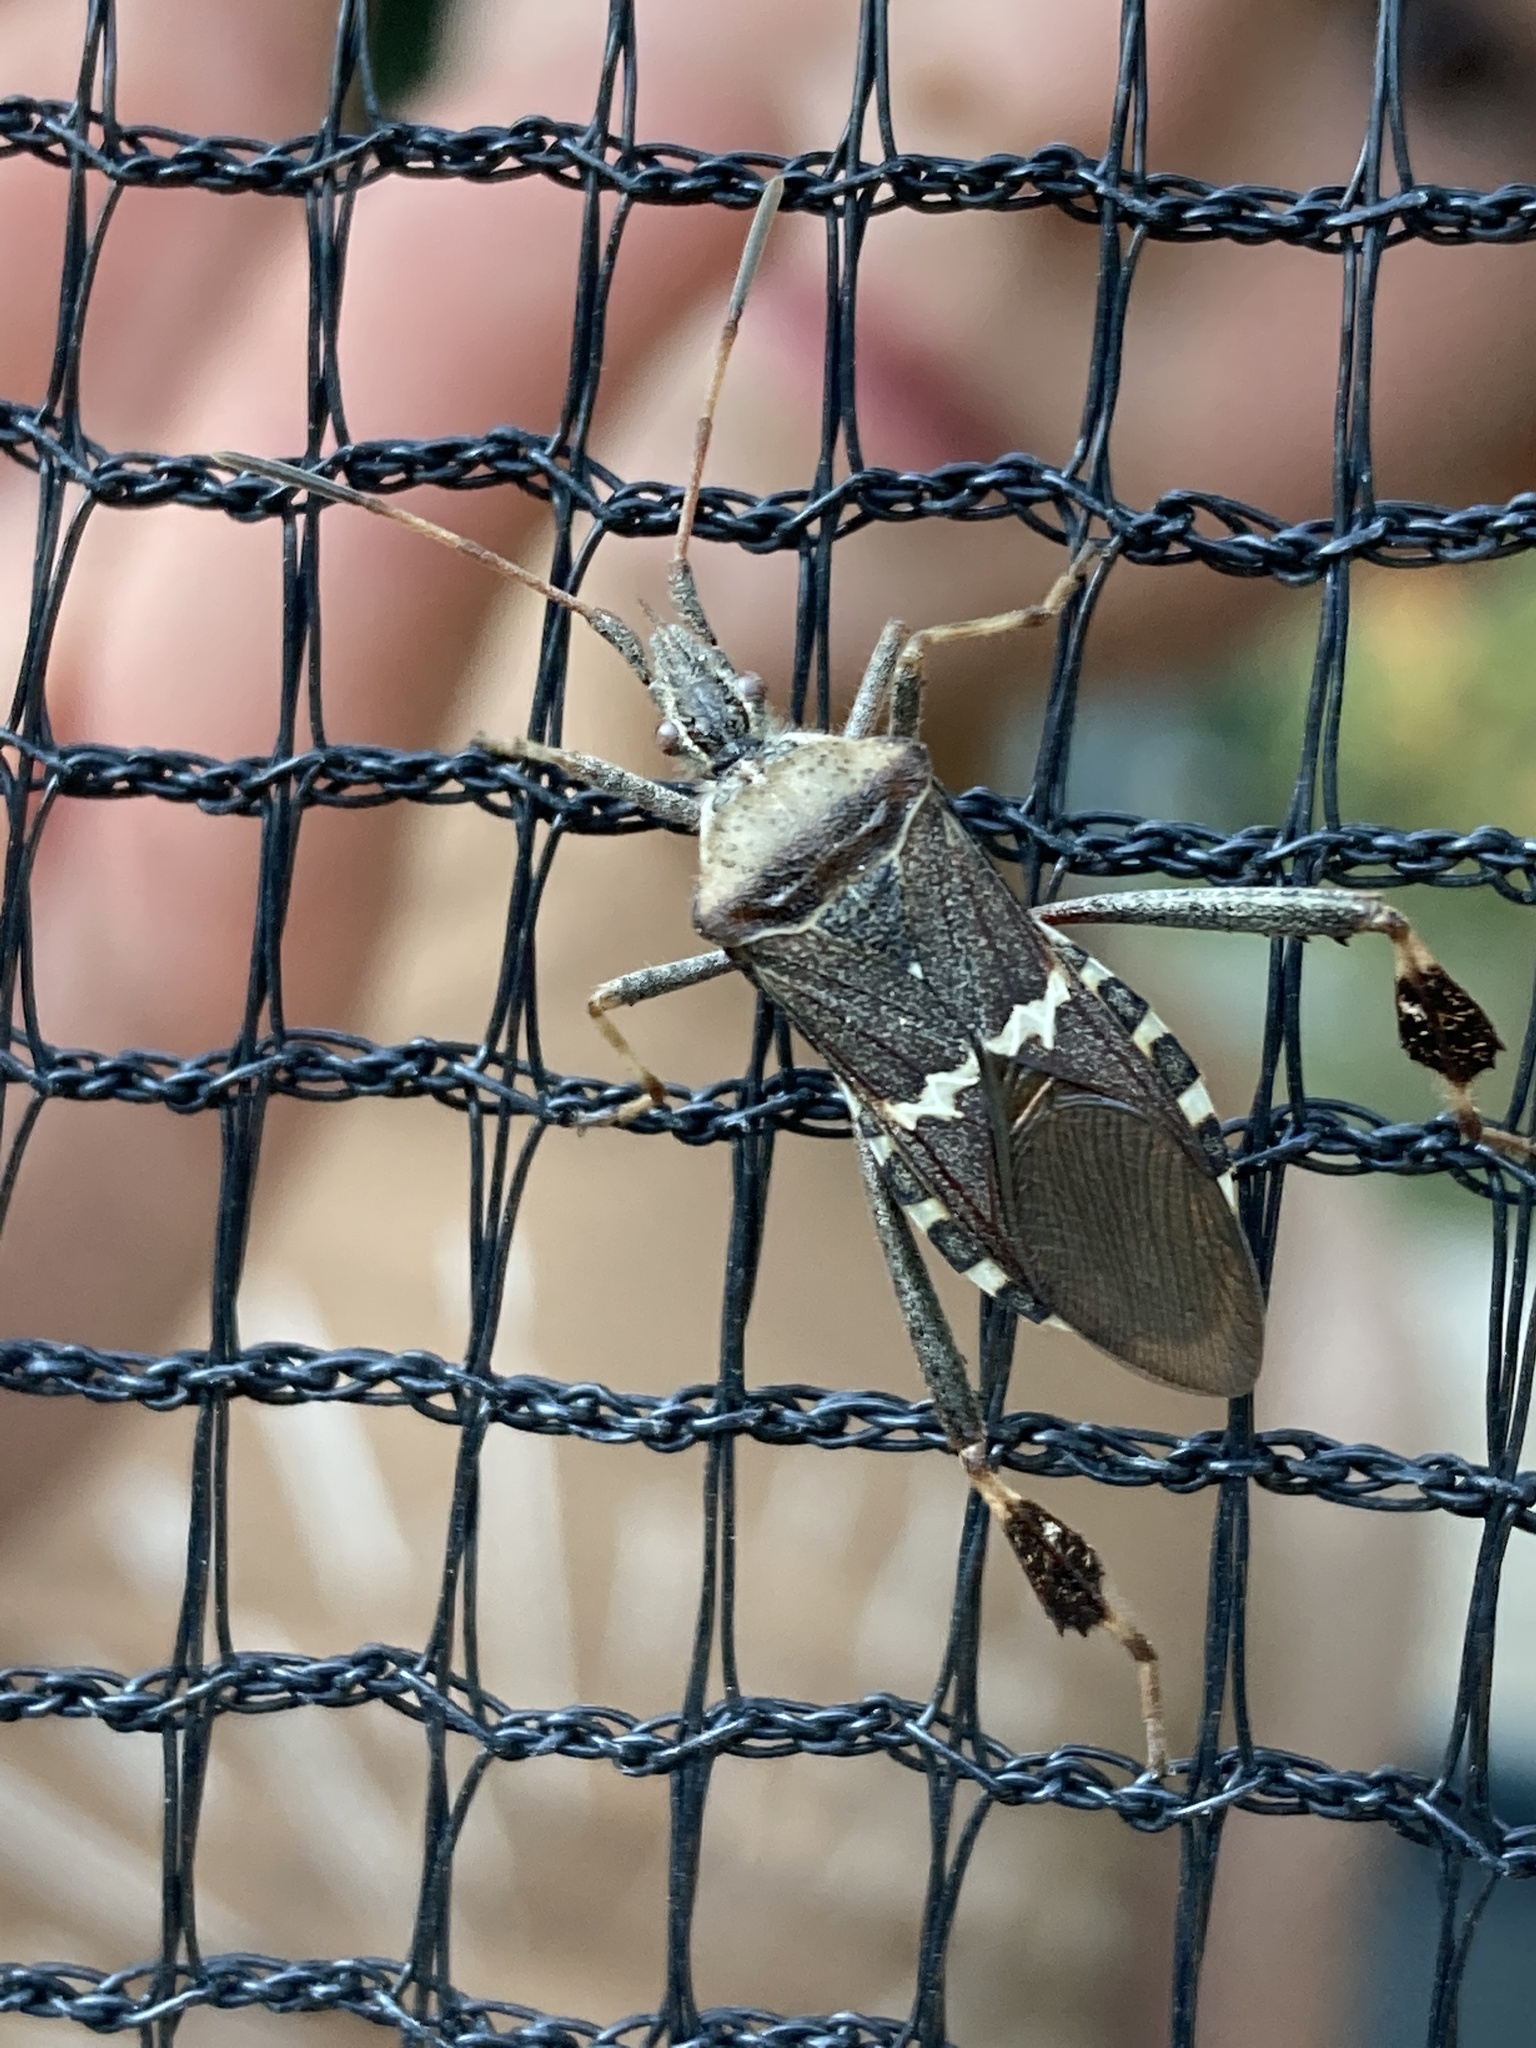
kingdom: Animalia
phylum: Arthropoda
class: Insecta
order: Hemiptera
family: Coreidae
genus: Leptoglossus
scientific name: Leptoglossus clypealis
